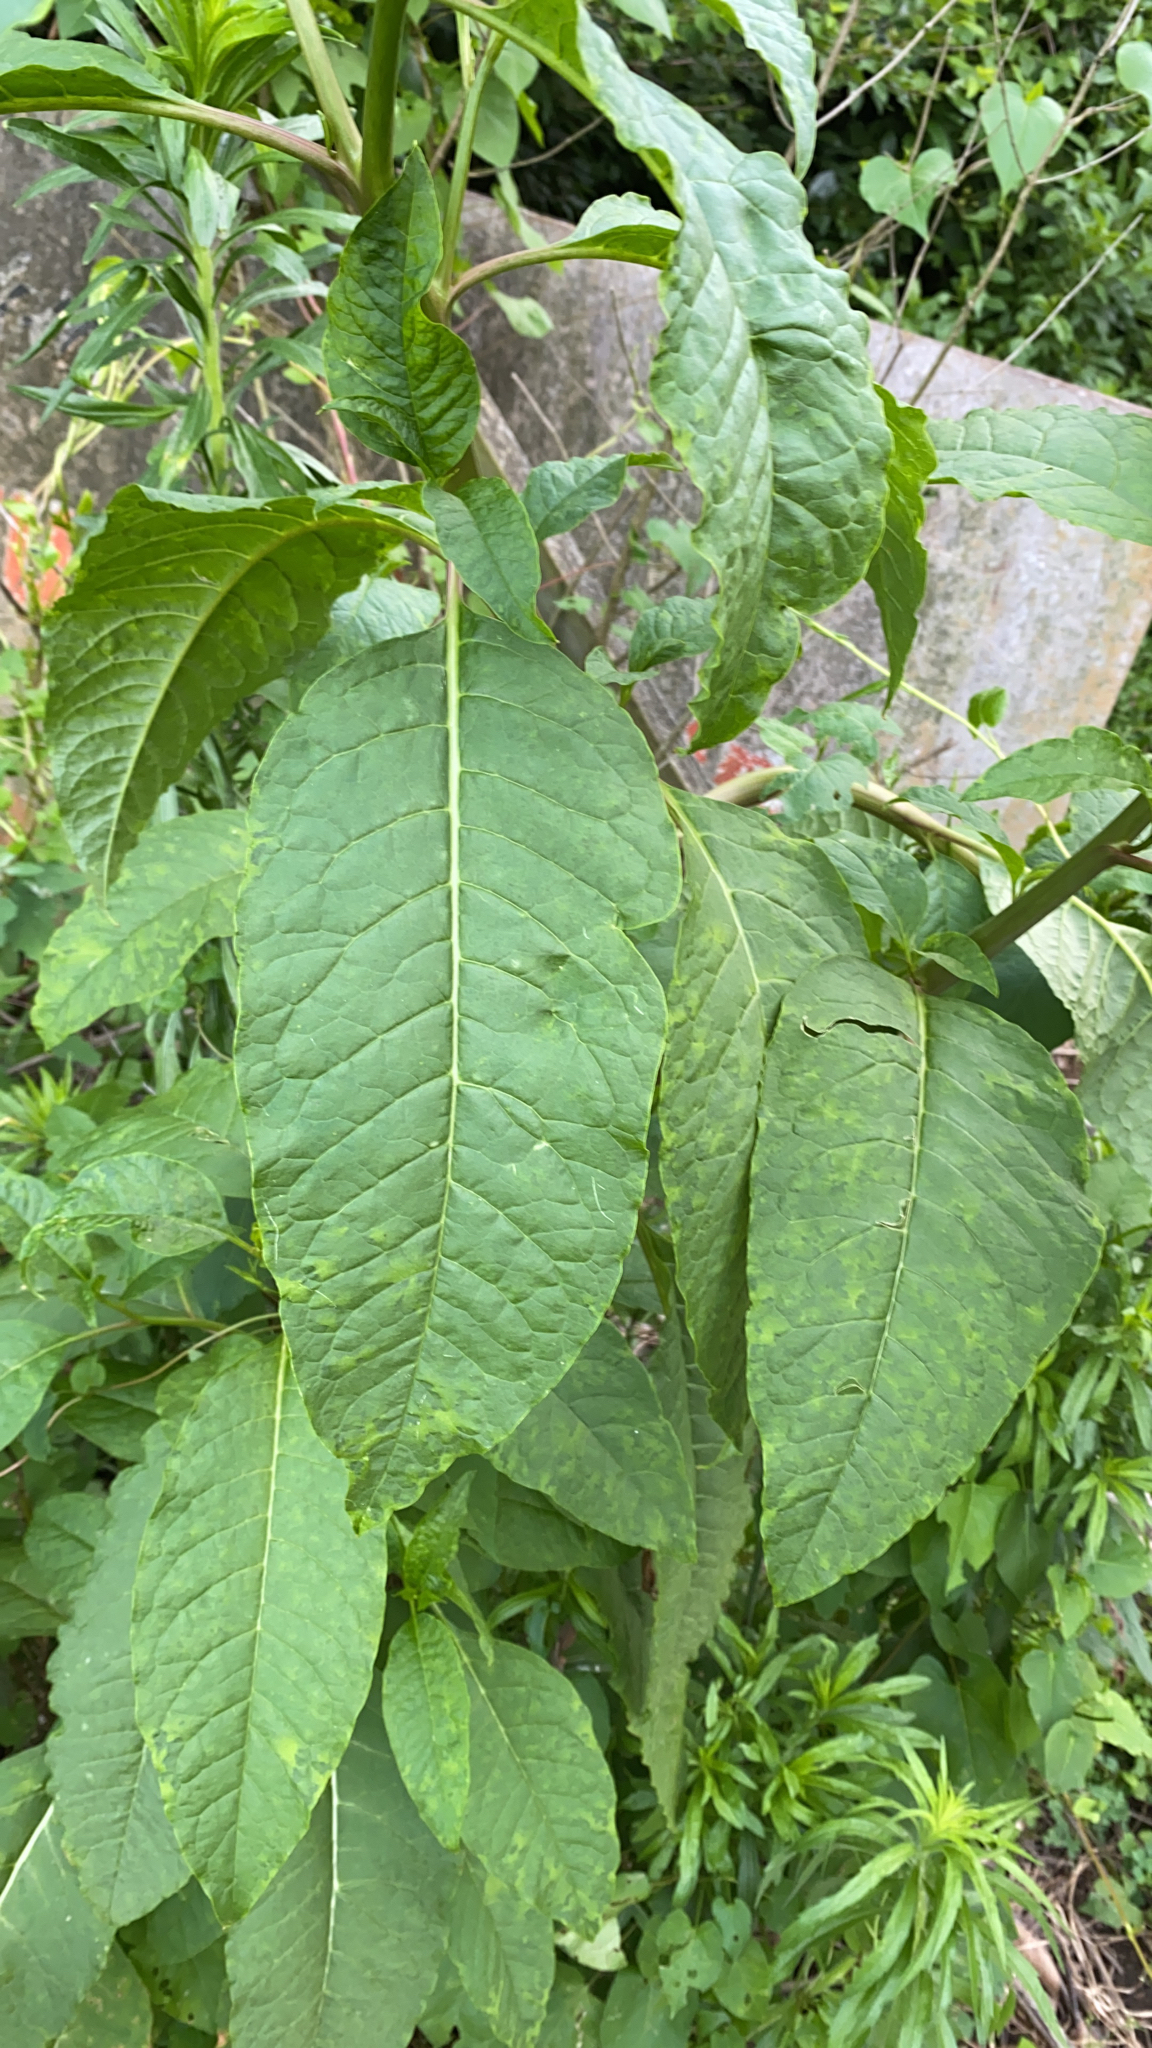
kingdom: Plantae
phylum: Tracheophyta
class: Magnoliopsida
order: Caryophyllales
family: Phytolaccaceae
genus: Phytolacca
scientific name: Phytolacca americana
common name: American pokeweed
